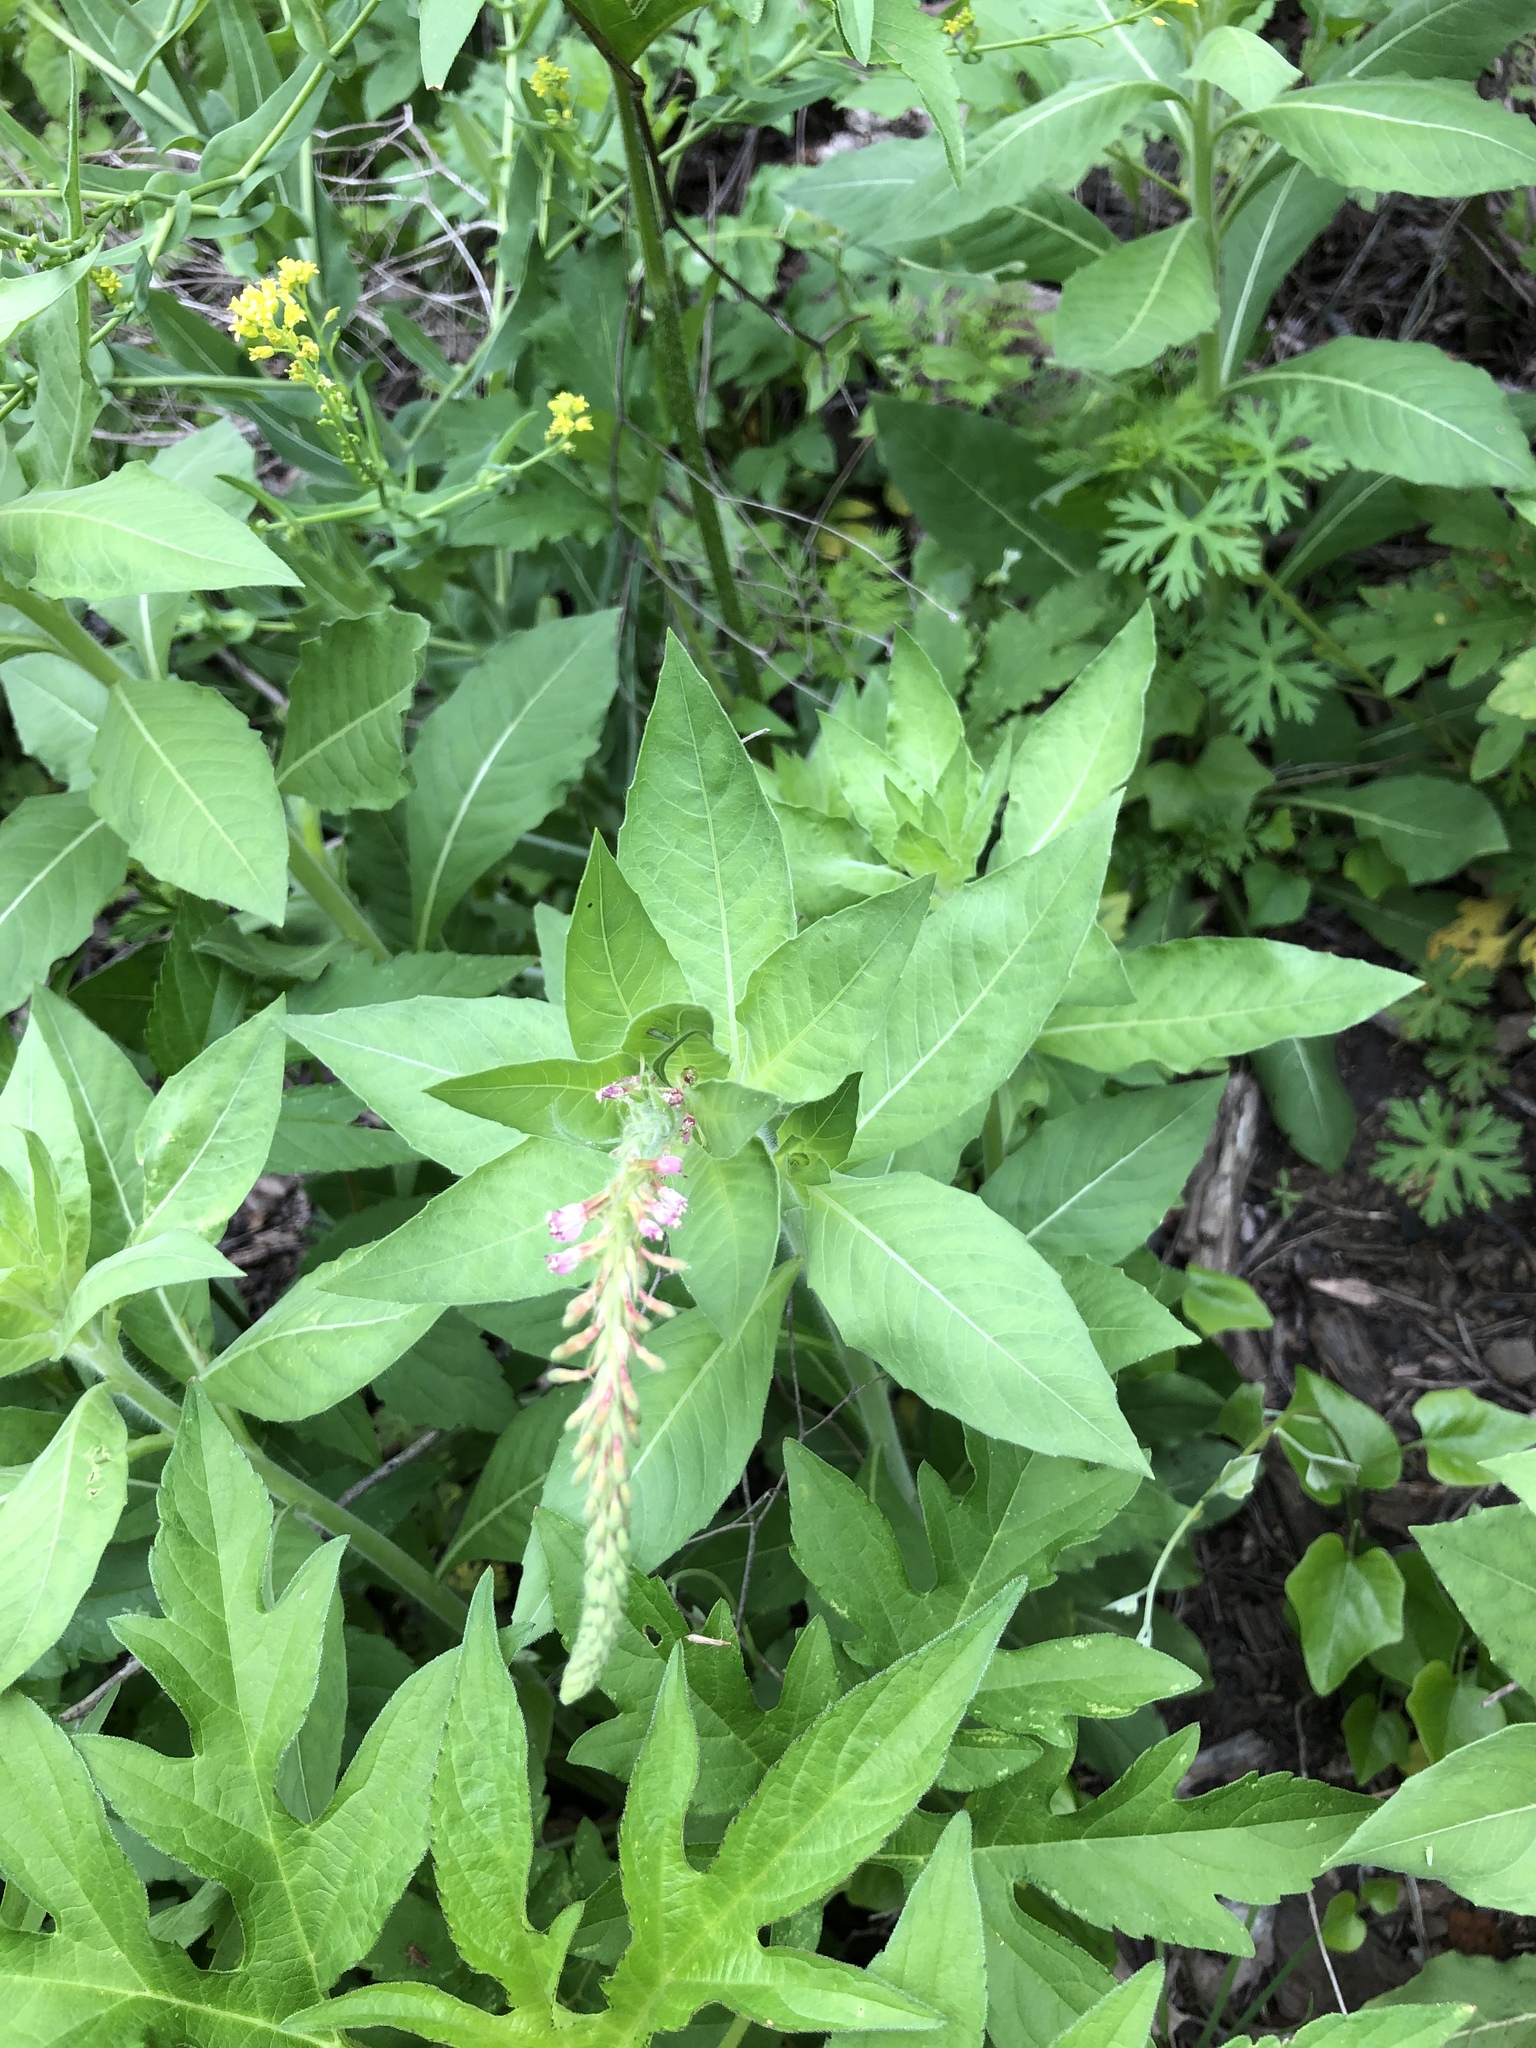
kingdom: Plantae
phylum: Tracheophyta
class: Magnoliopsida
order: Myrtales
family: Onagraceae
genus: Oenothera
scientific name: Oenothera curtiflora
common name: Velvetweed
